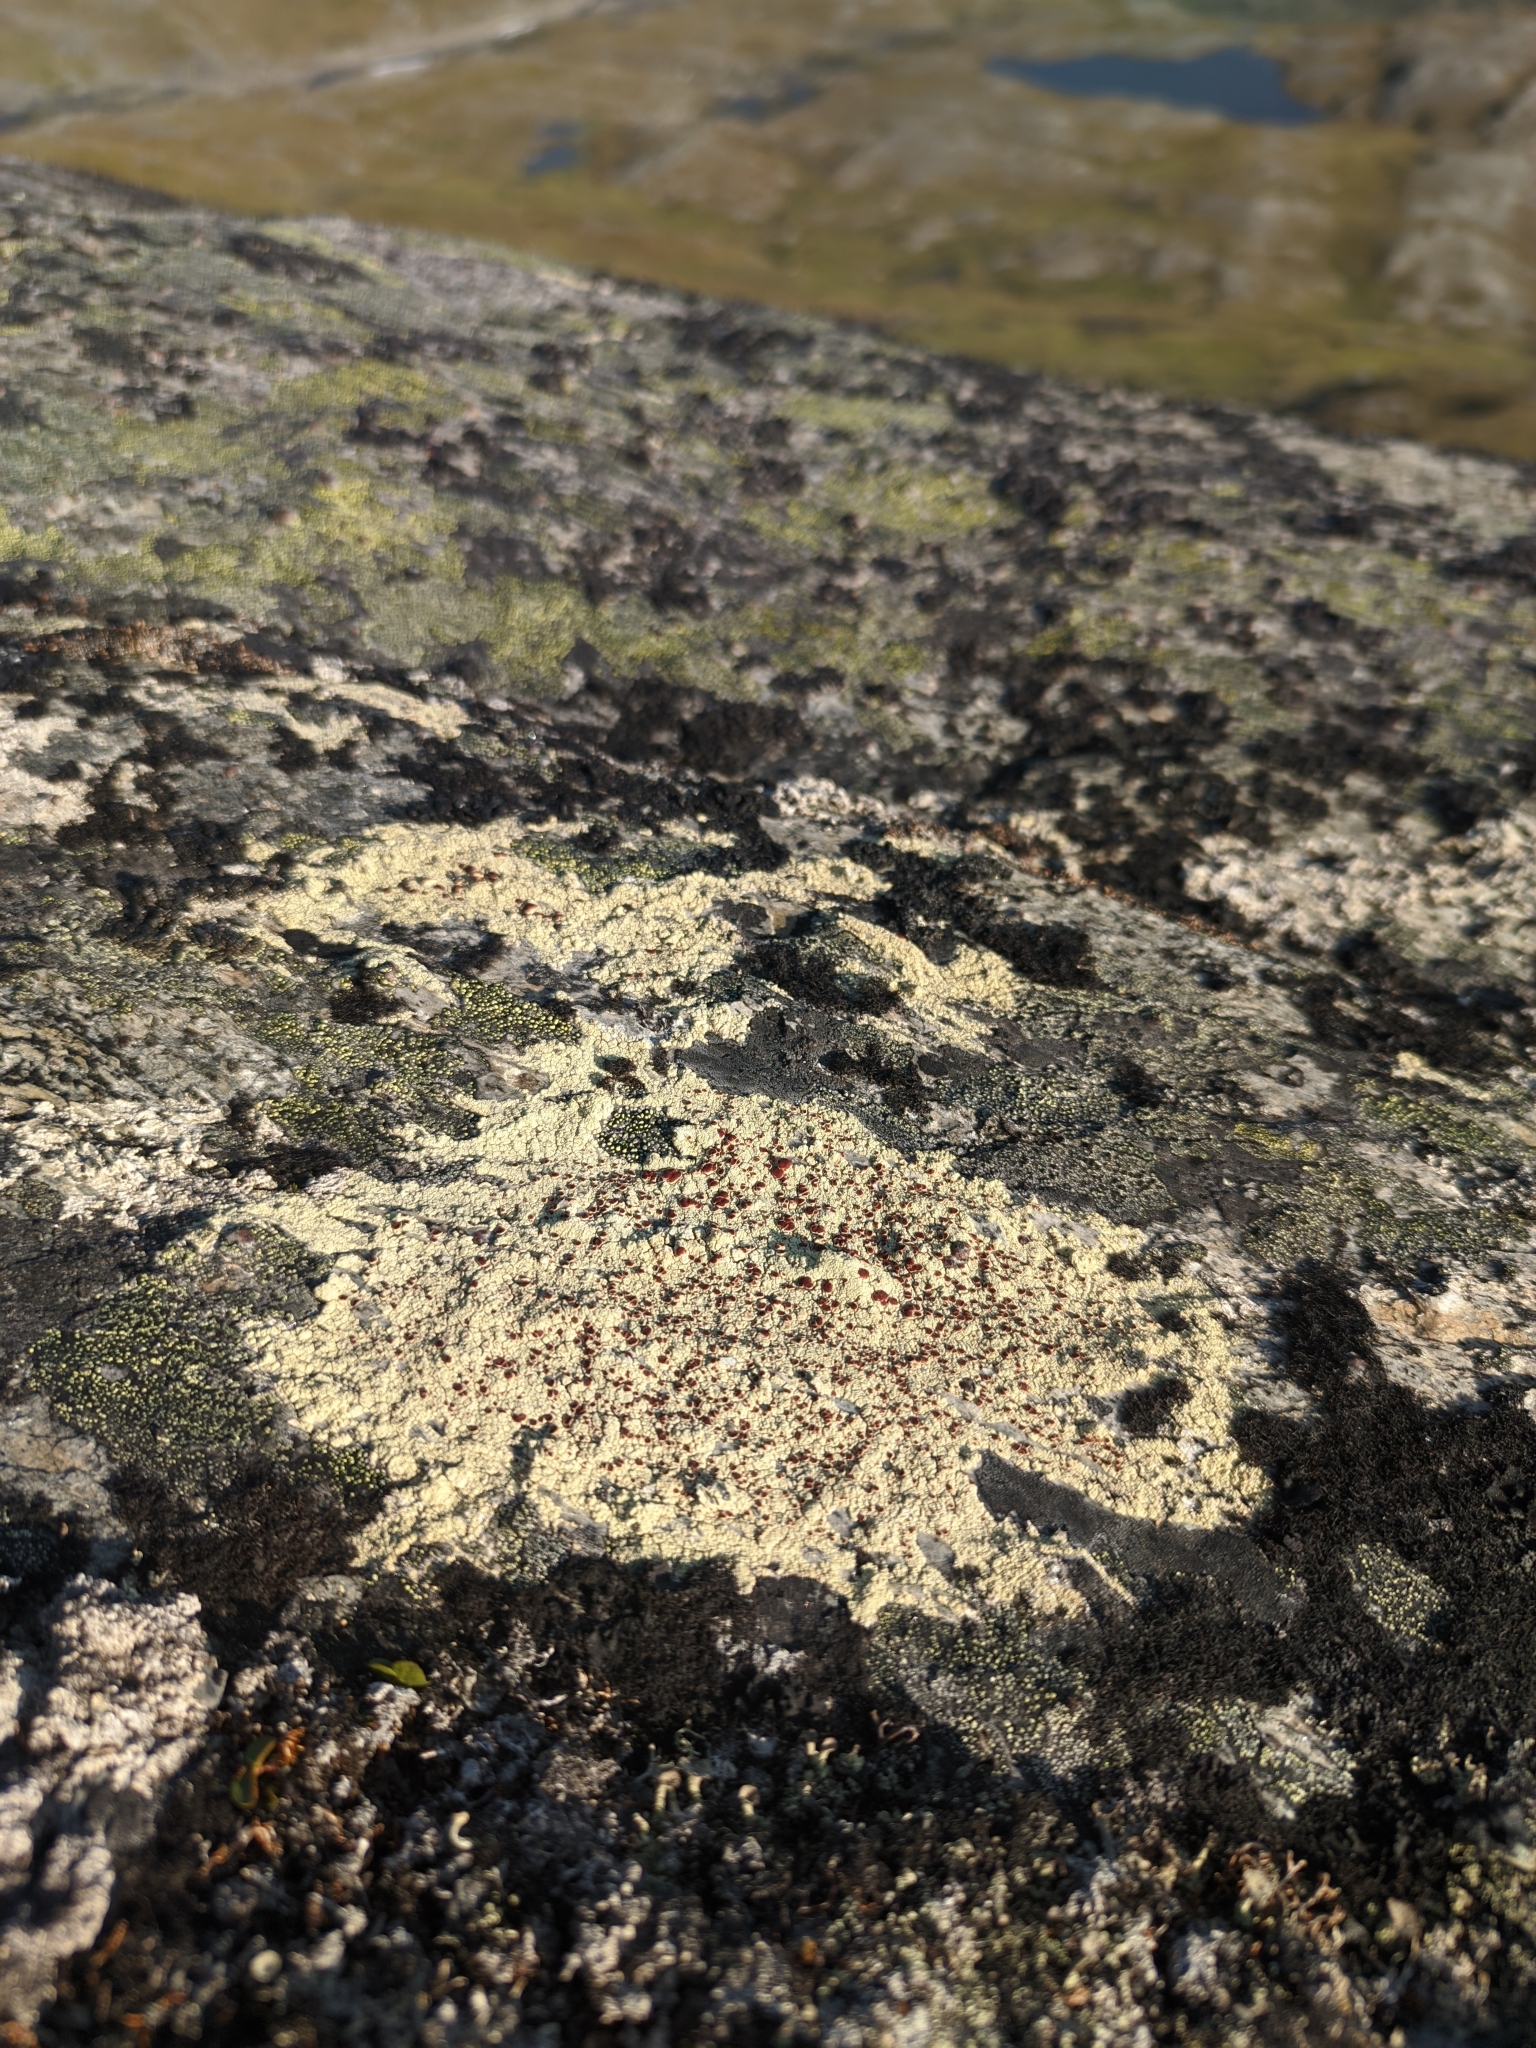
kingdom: Fungi
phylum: Ascomycota
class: Lecanoromycetes
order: Umbilicariales
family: Ophioparmaceae
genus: Ophioparma
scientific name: Ophioparma ventosa
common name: Blood-spot
